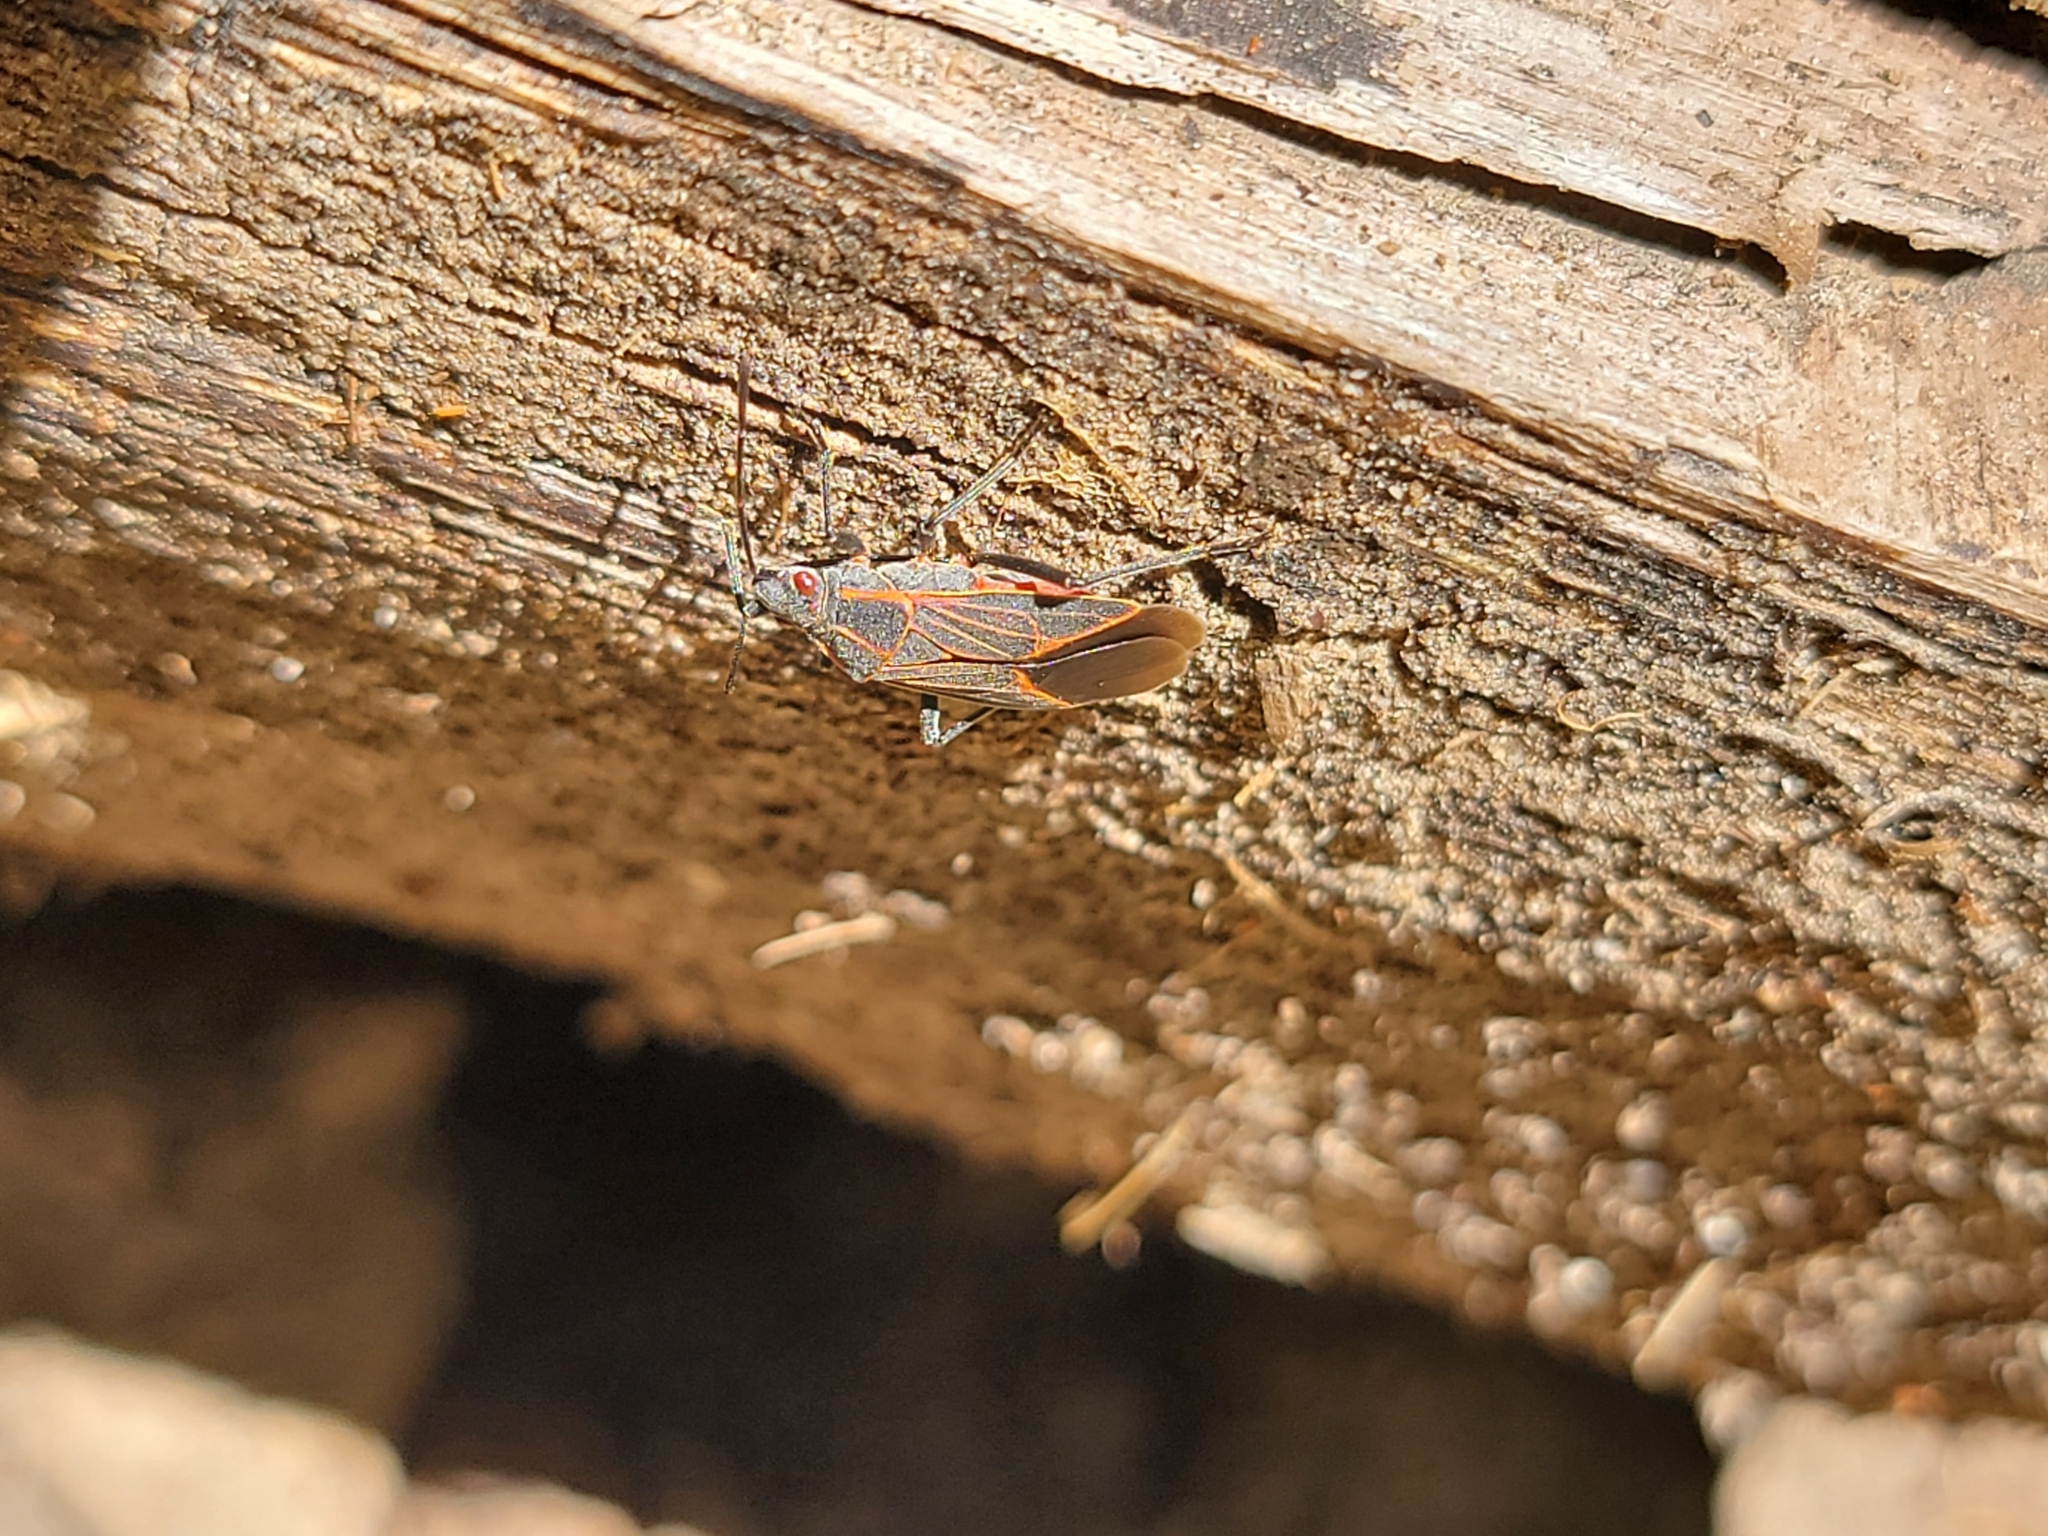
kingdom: Animalia
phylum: Arthropoda
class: Insecta
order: Hemiptera
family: Rhopalidae
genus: Boisea
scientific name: Boisea rubrolineata
